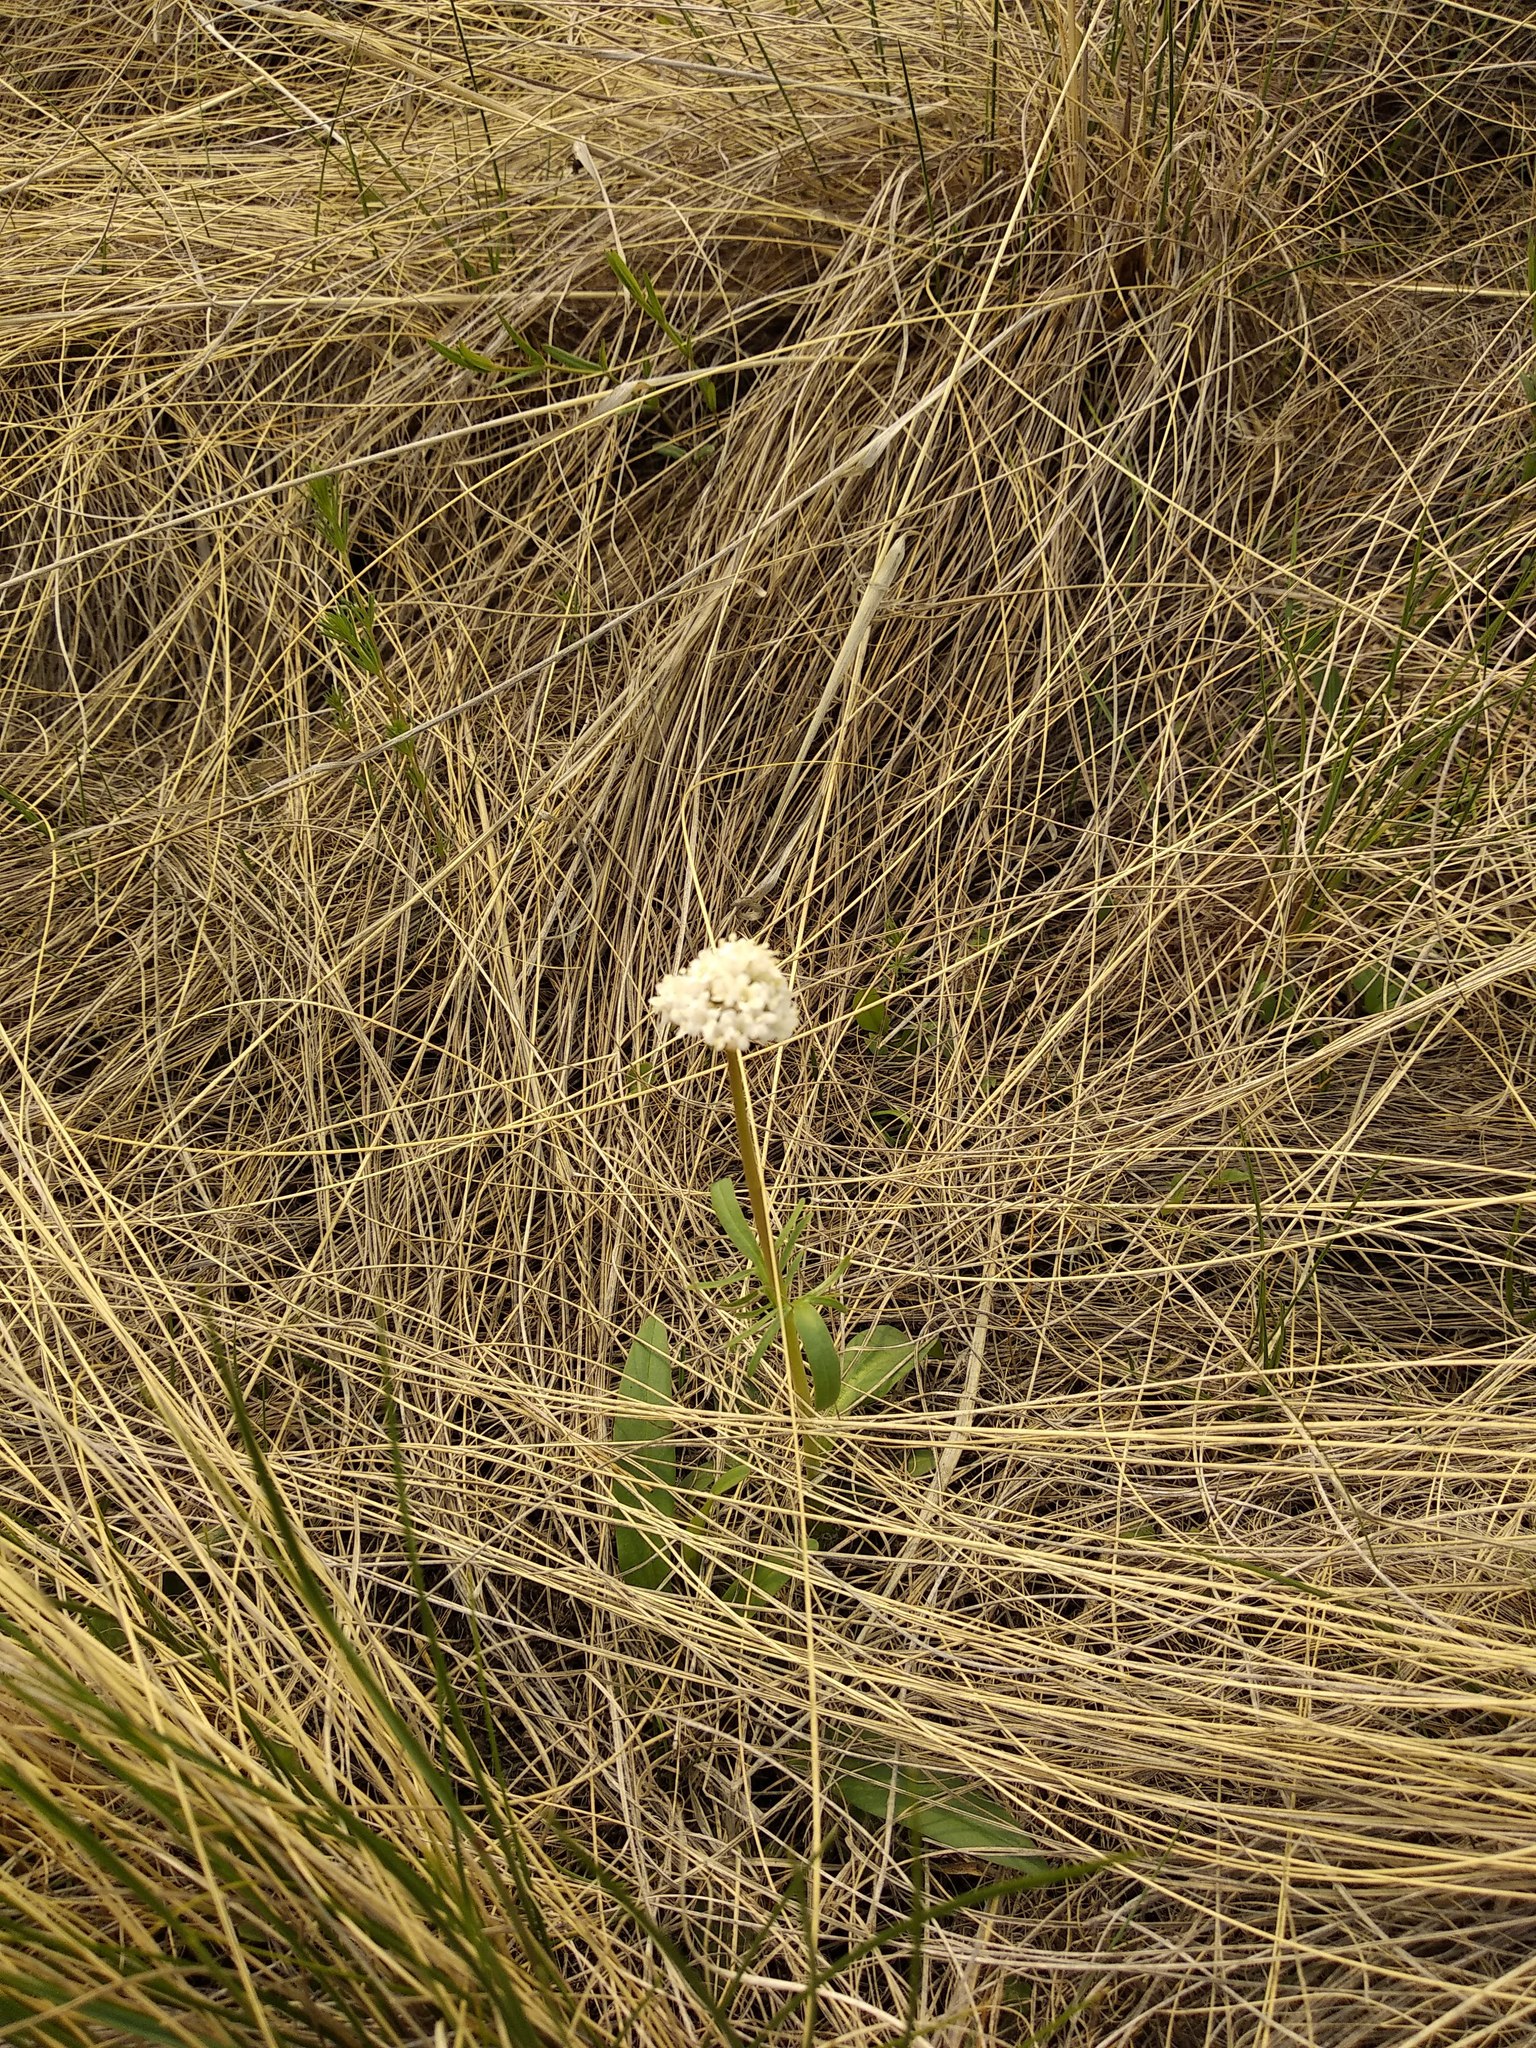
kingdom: Plantae
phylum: Tracheophyta
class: Magnoliopsida
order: Dipsacales
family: Caprifoliaceae
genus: Valeriana
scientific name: Valeriana tuberosa
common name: Tuberous valerian
